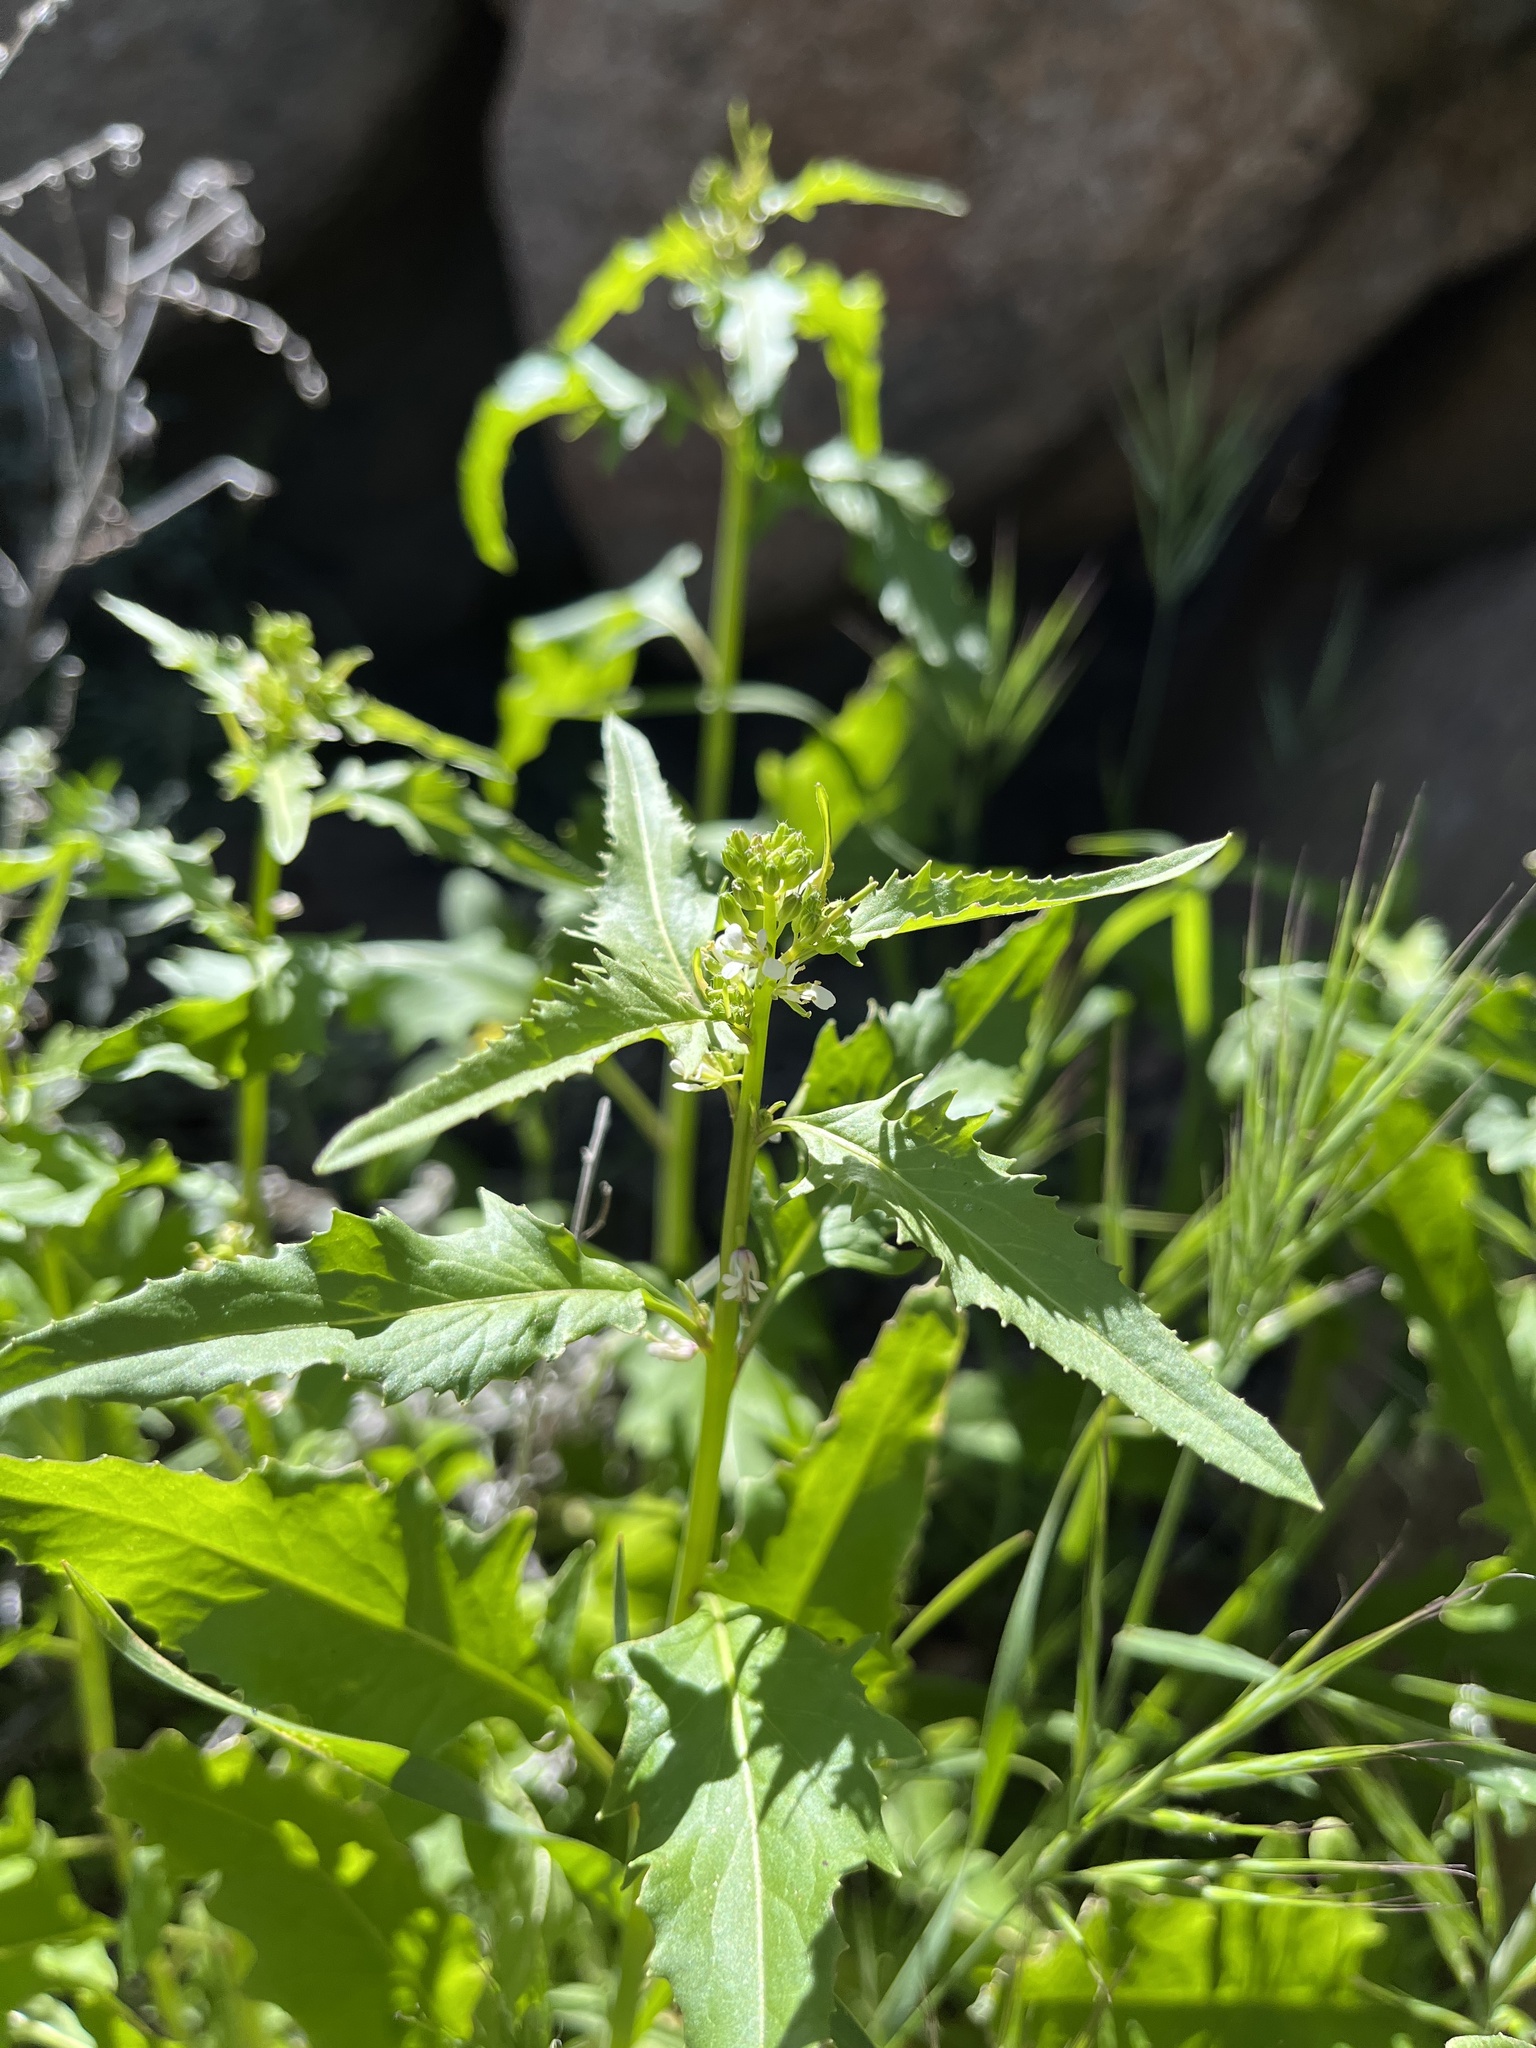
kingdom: Plantae
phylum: Tracheophyta
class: Magnoliopsida
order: Brassicales
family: Brassicaceae
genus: Streptanthus
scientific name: Streptanthus lasiophyllus
